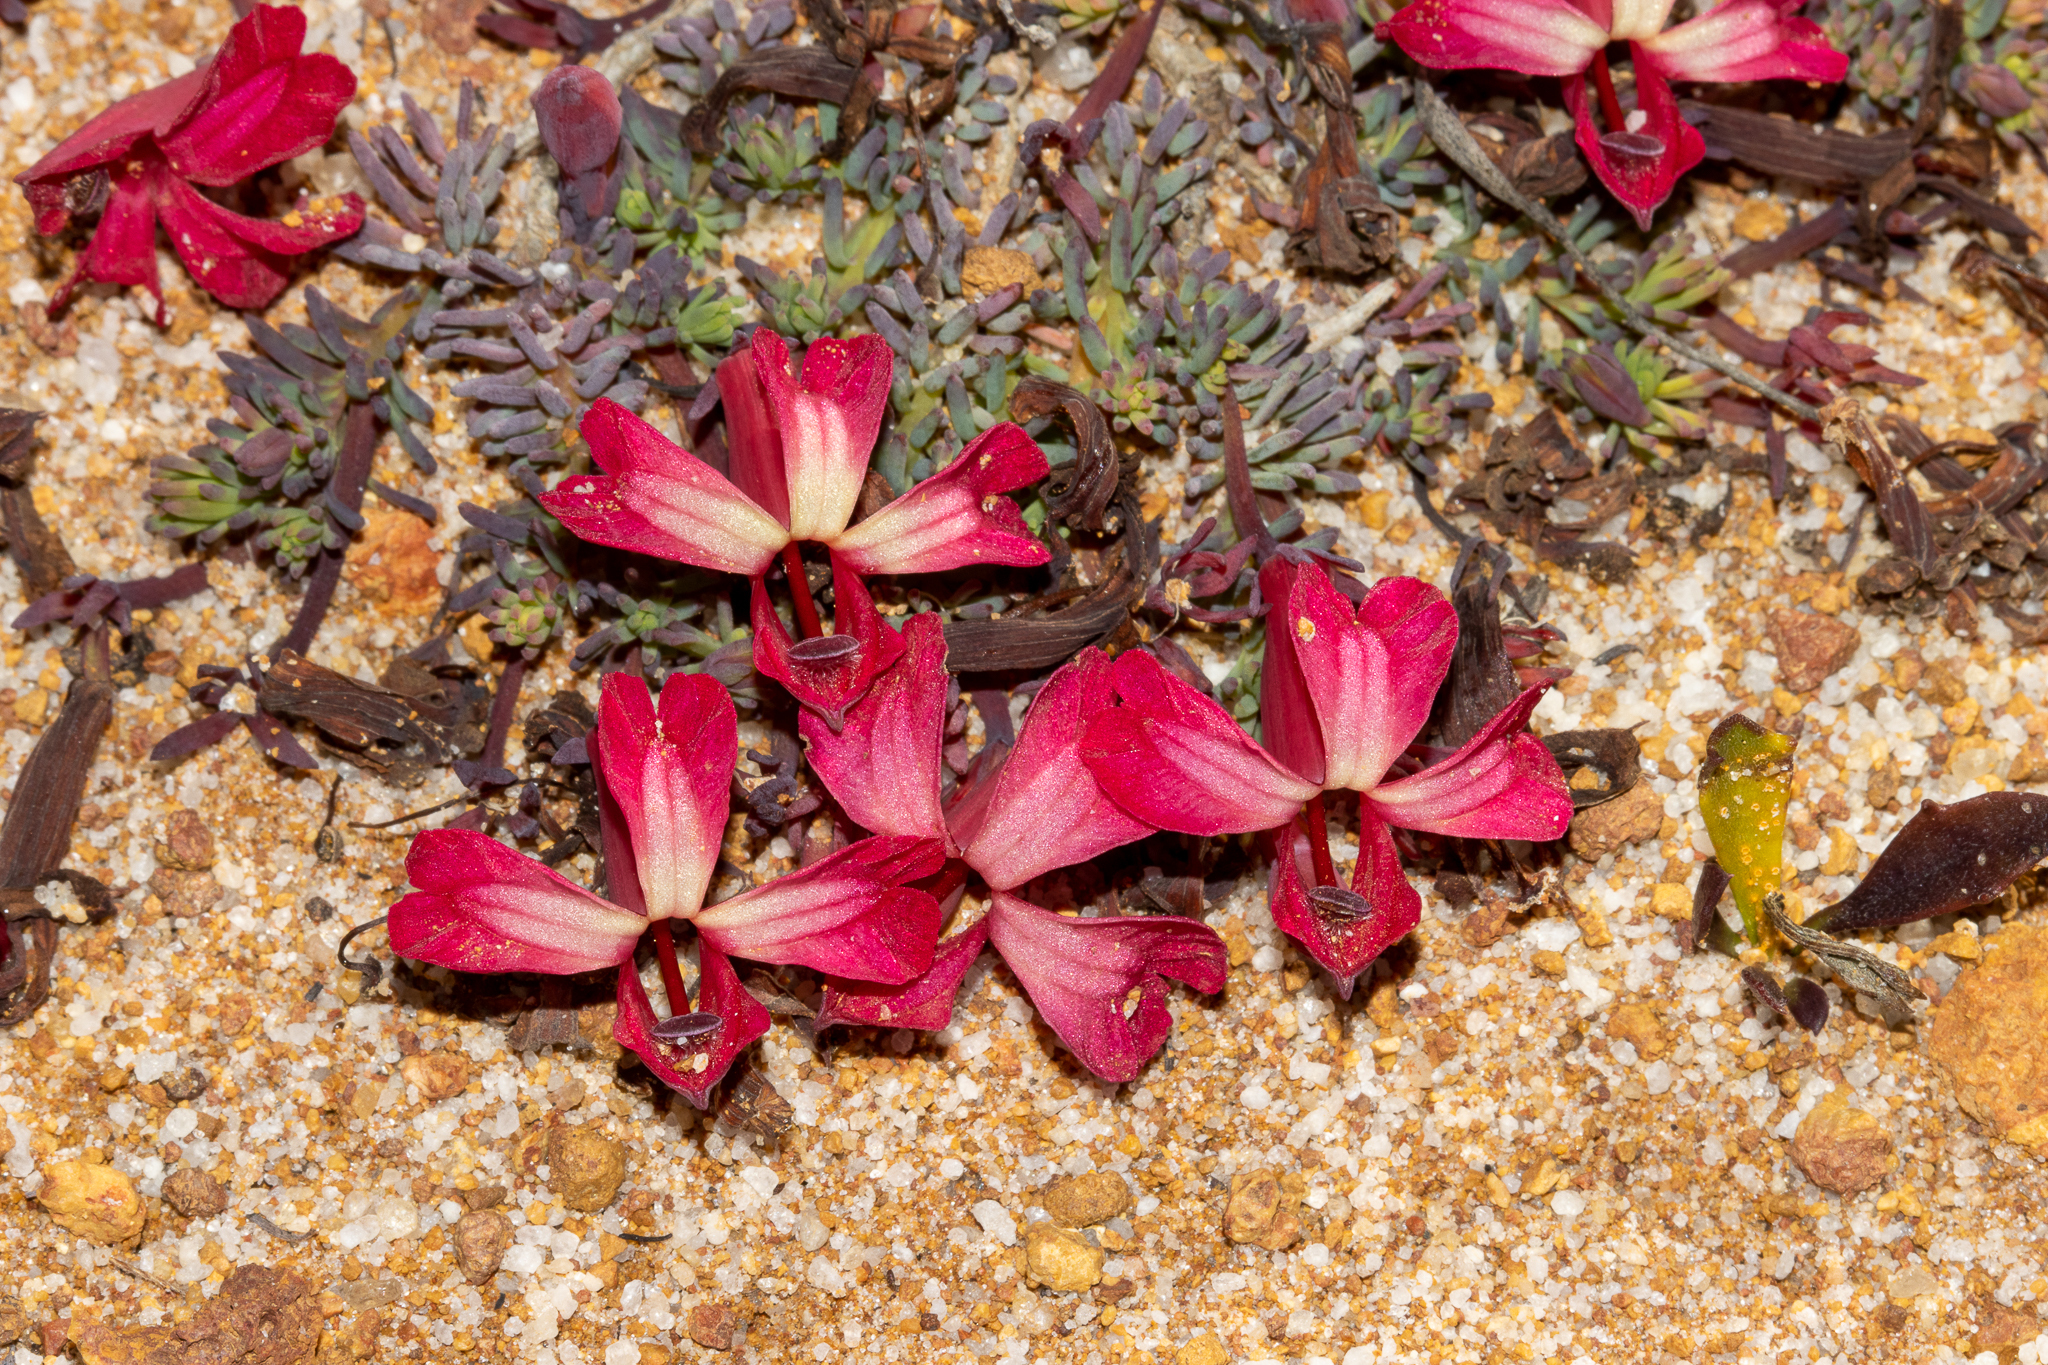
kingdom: Plantae
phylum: Tracheophyta
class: Magnoliopsida
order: Asterales
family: Goodeniaceae
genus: Lechenaultia
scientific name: Lechenaultia formosa
